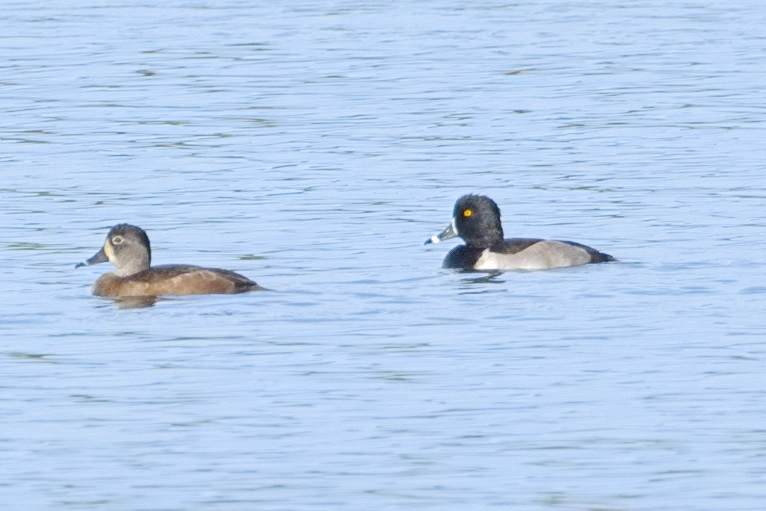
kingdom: Animalia
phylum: Chordata
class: Aves
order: Anseriformes
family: Anatidae
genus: Aythya
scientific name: Aythya collaris
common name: Ring-necked duck
